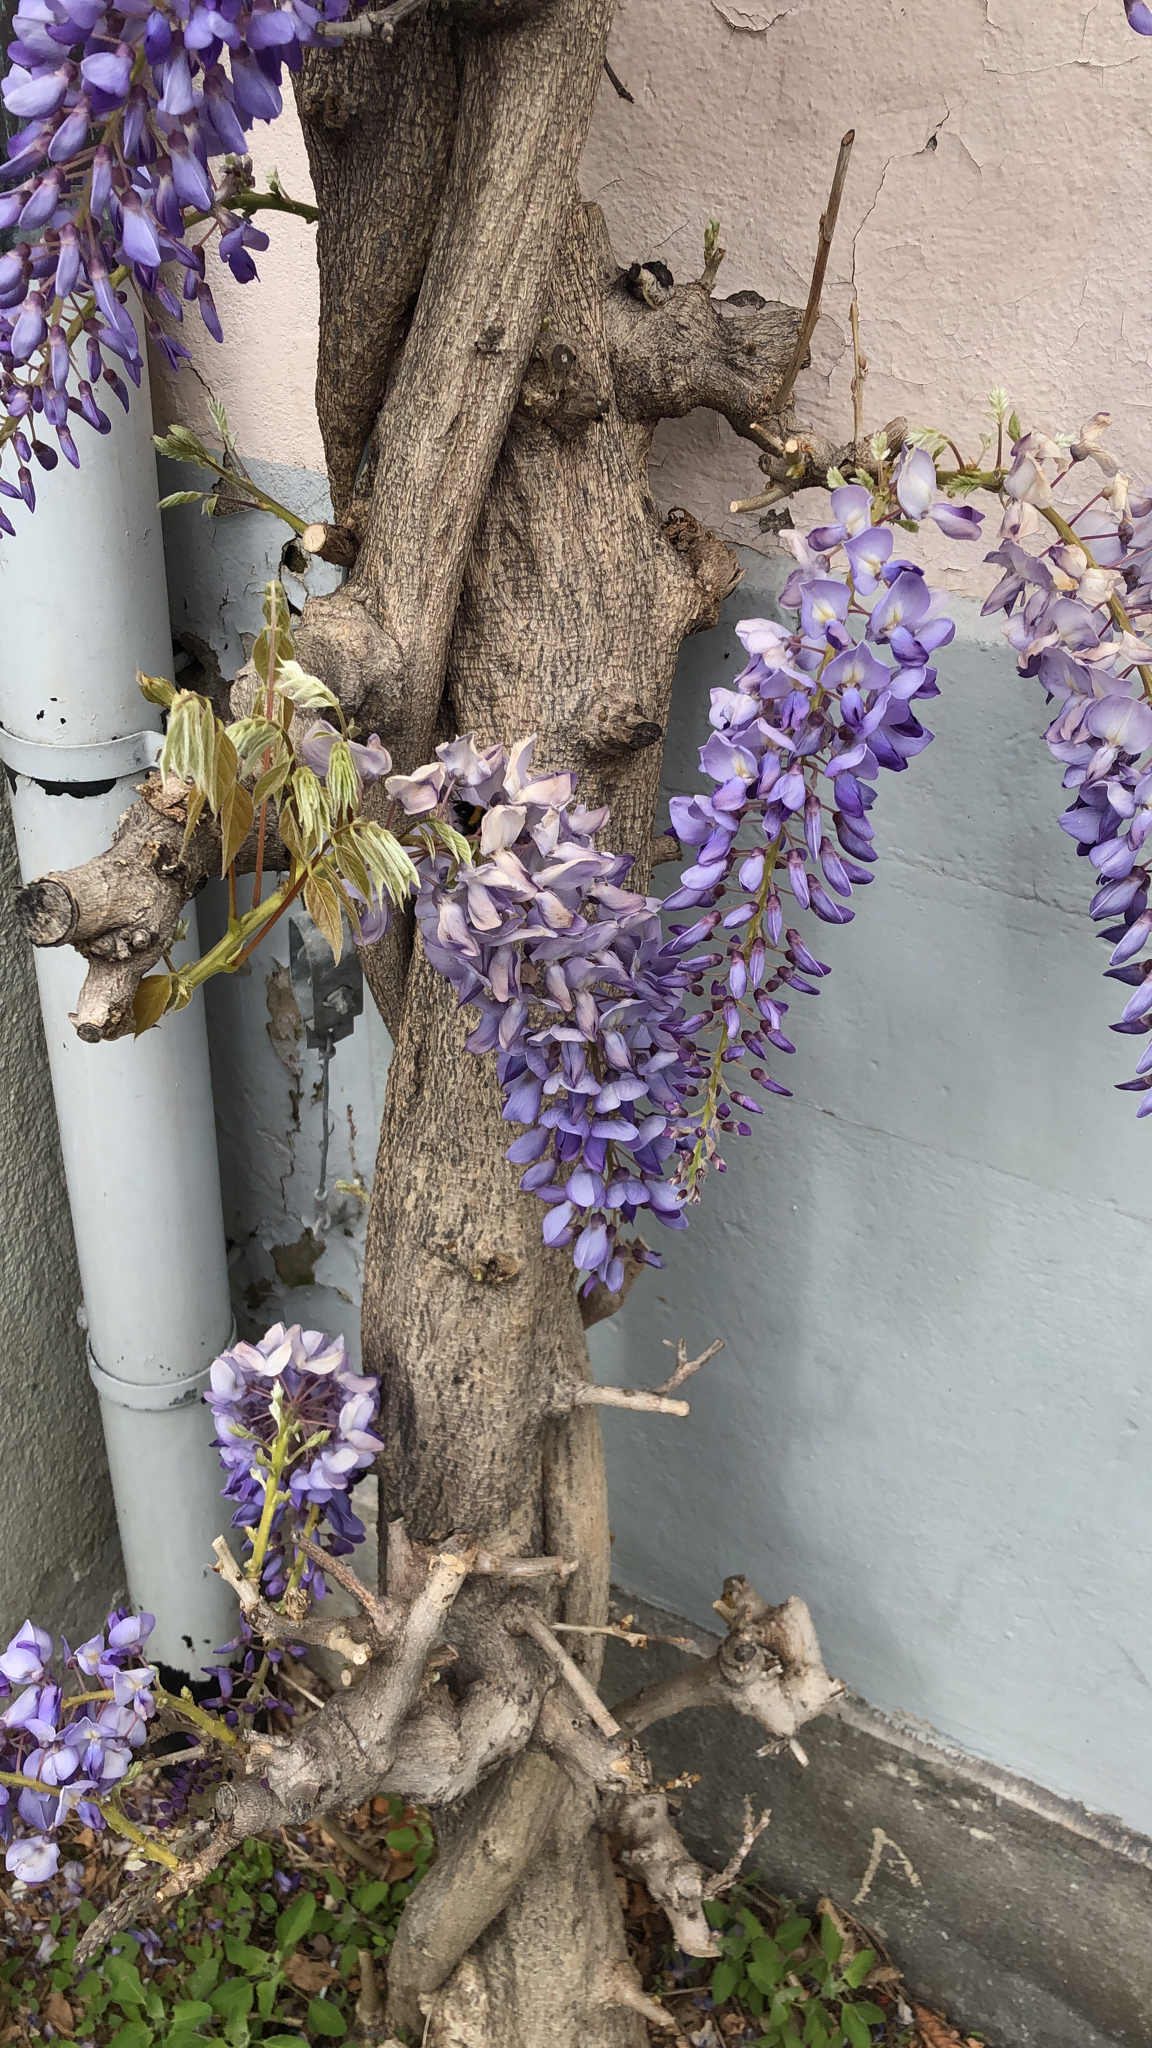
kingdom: Plantae
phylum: Tracheophyta
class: Magnoliopsida
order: Fabales
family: Fabaceae
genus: Wisteria
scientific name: Wisteria sinensis
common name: Chinese wisteria
